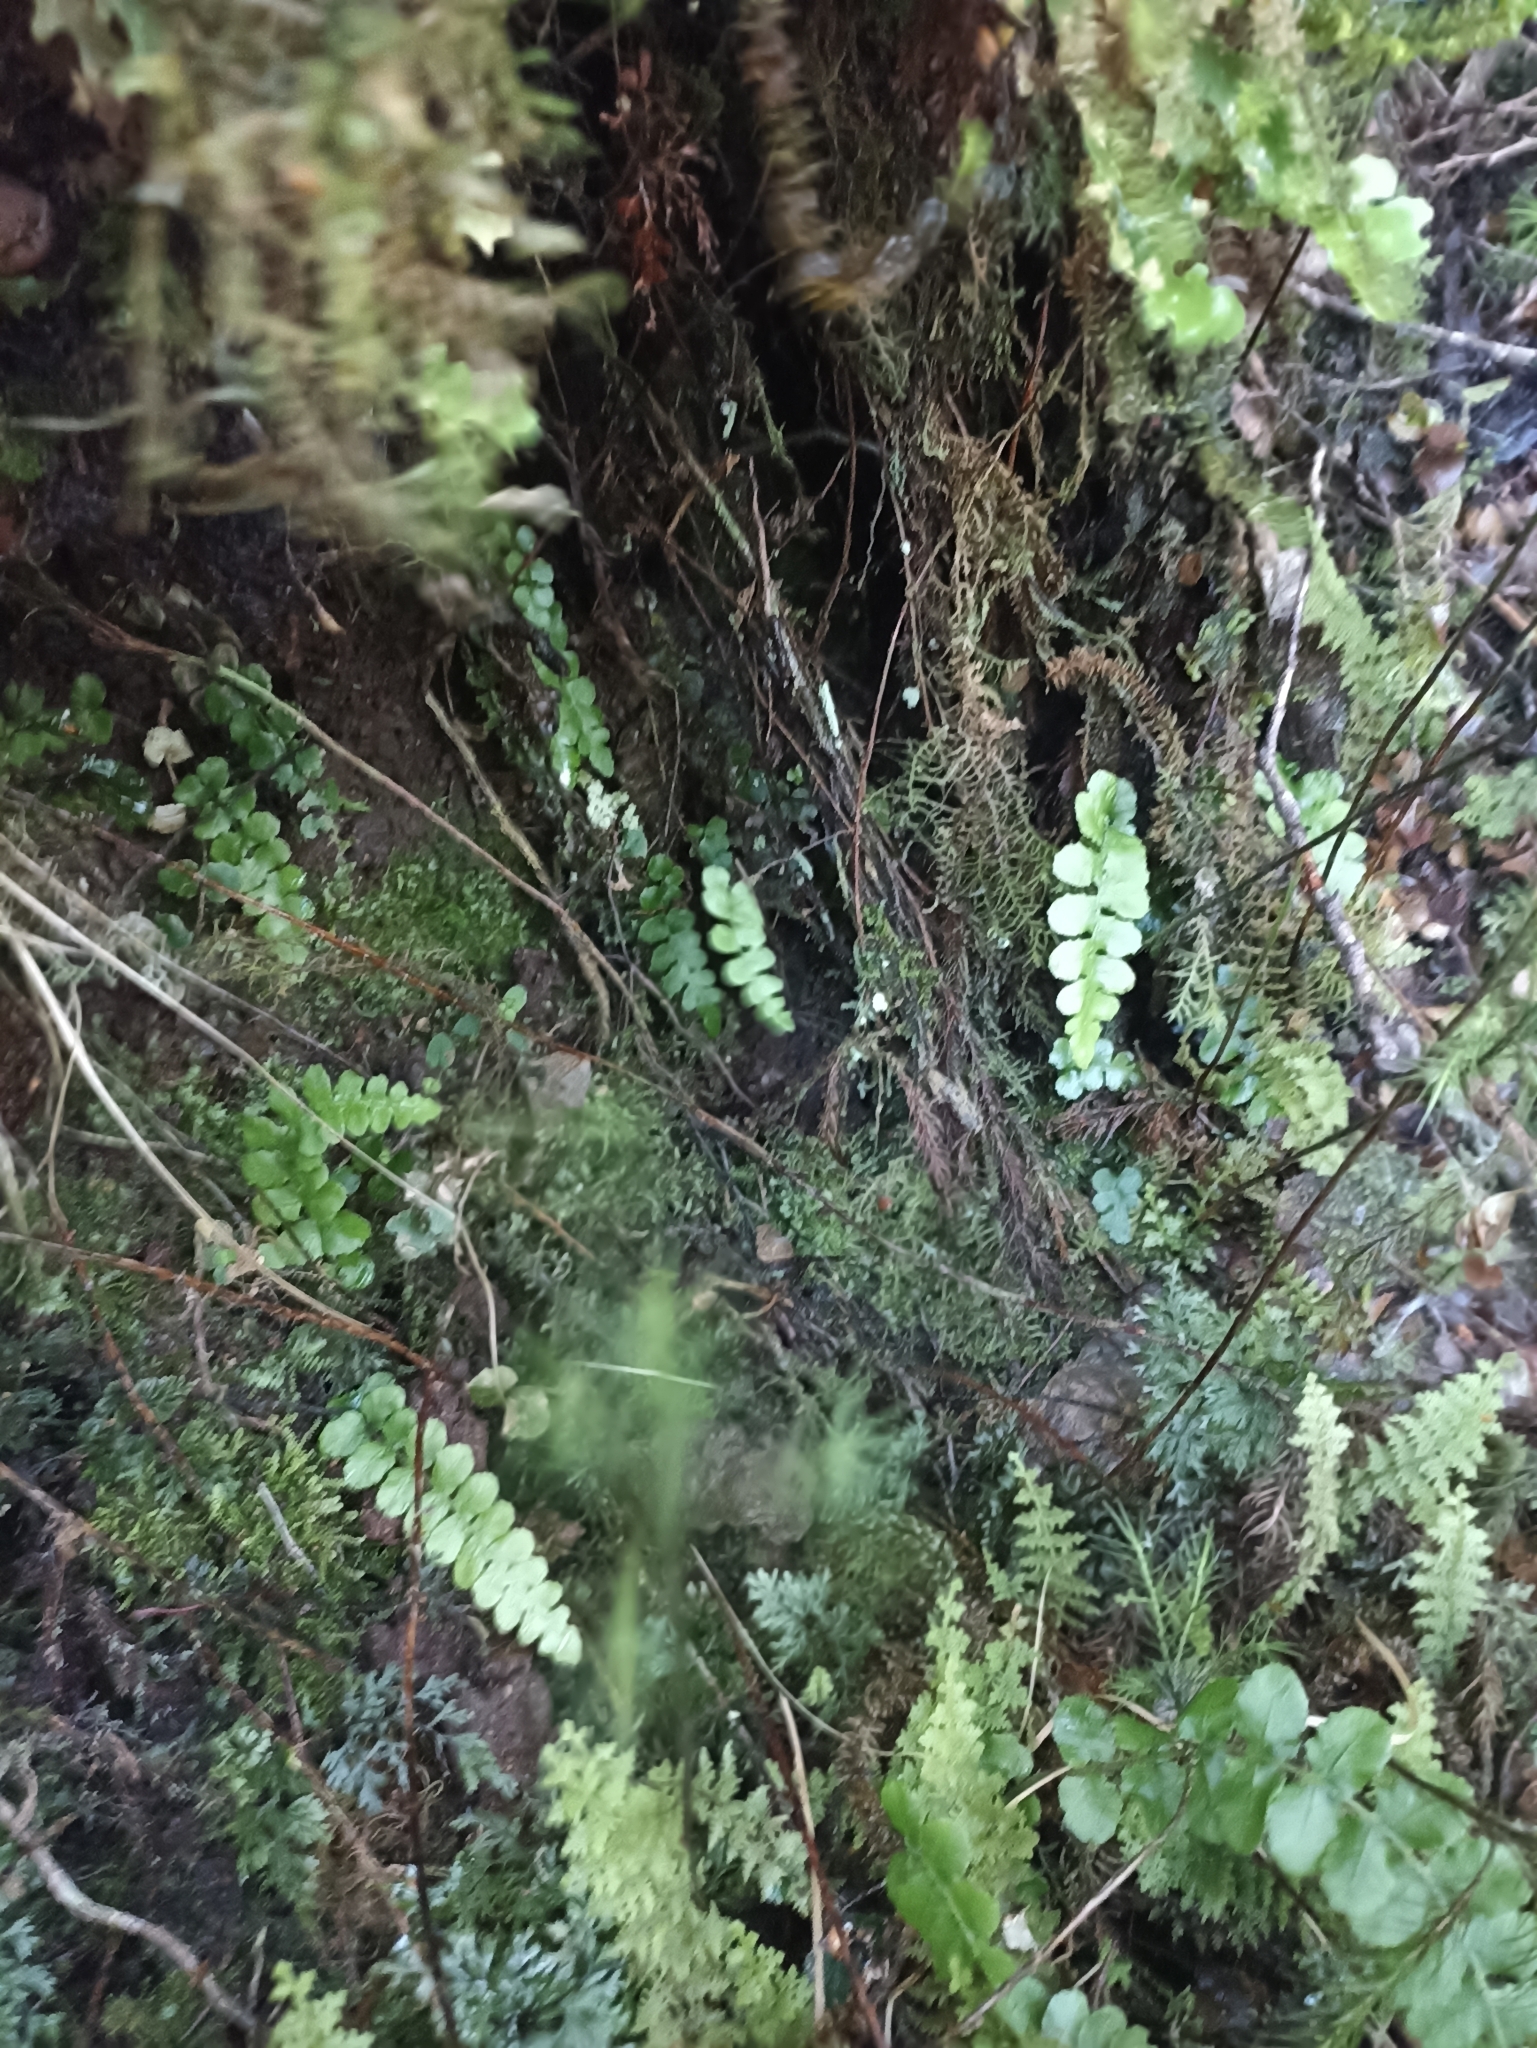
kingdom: Plantae
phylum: Tracheophyta
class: Polypodiopsida
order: Polypodiales
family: Blechnaceae
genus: Cranfillia
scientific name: Cranfillia fluviatilis
